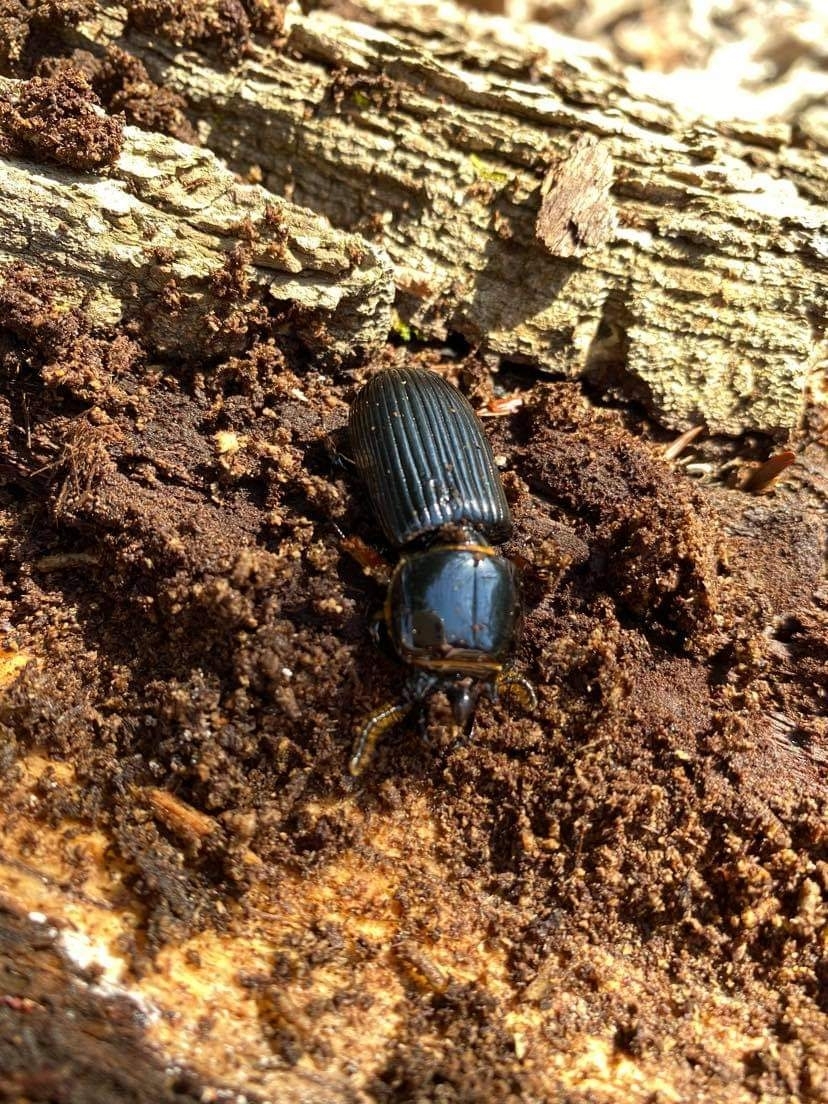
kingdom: Animalia
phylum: Arthropoda
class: Insecta
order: Coleoptera
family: Passalidae
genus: Odontotaenius
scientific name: Odontotaenius disjunctus
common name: Patent leather beetle
